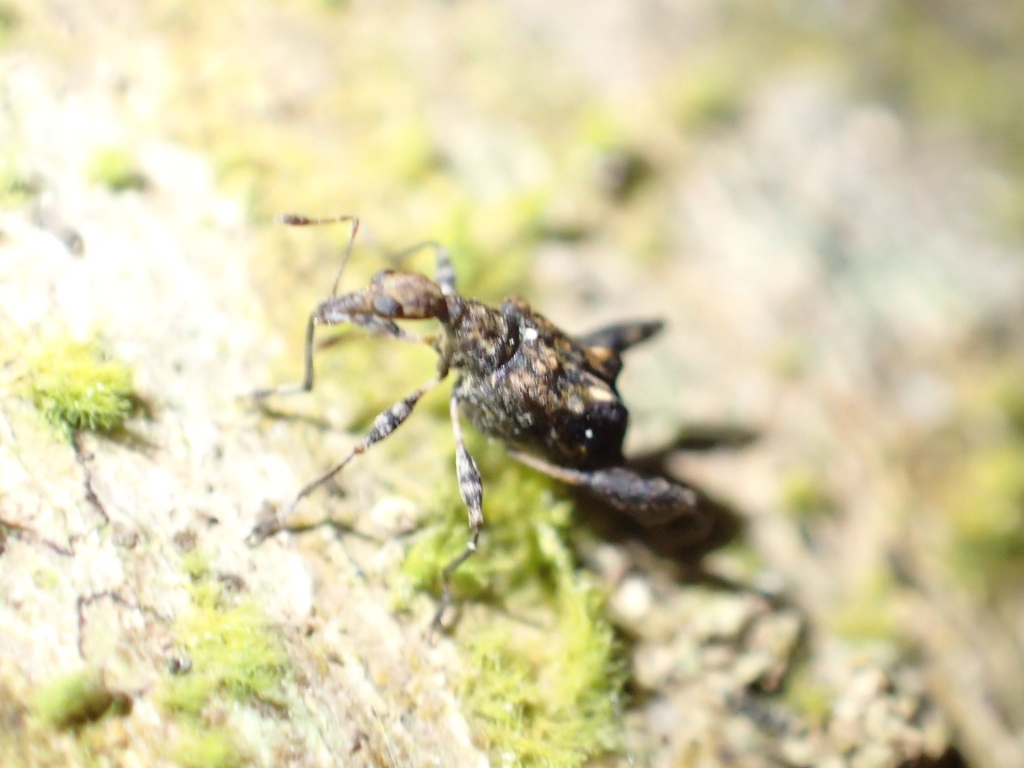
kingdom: Animalia
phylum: Arthropoda
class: Insecta
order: Coleoptera
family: Curculionidae
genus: Stephanorhynchus
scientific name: Stephanorhynchus lawsoni
